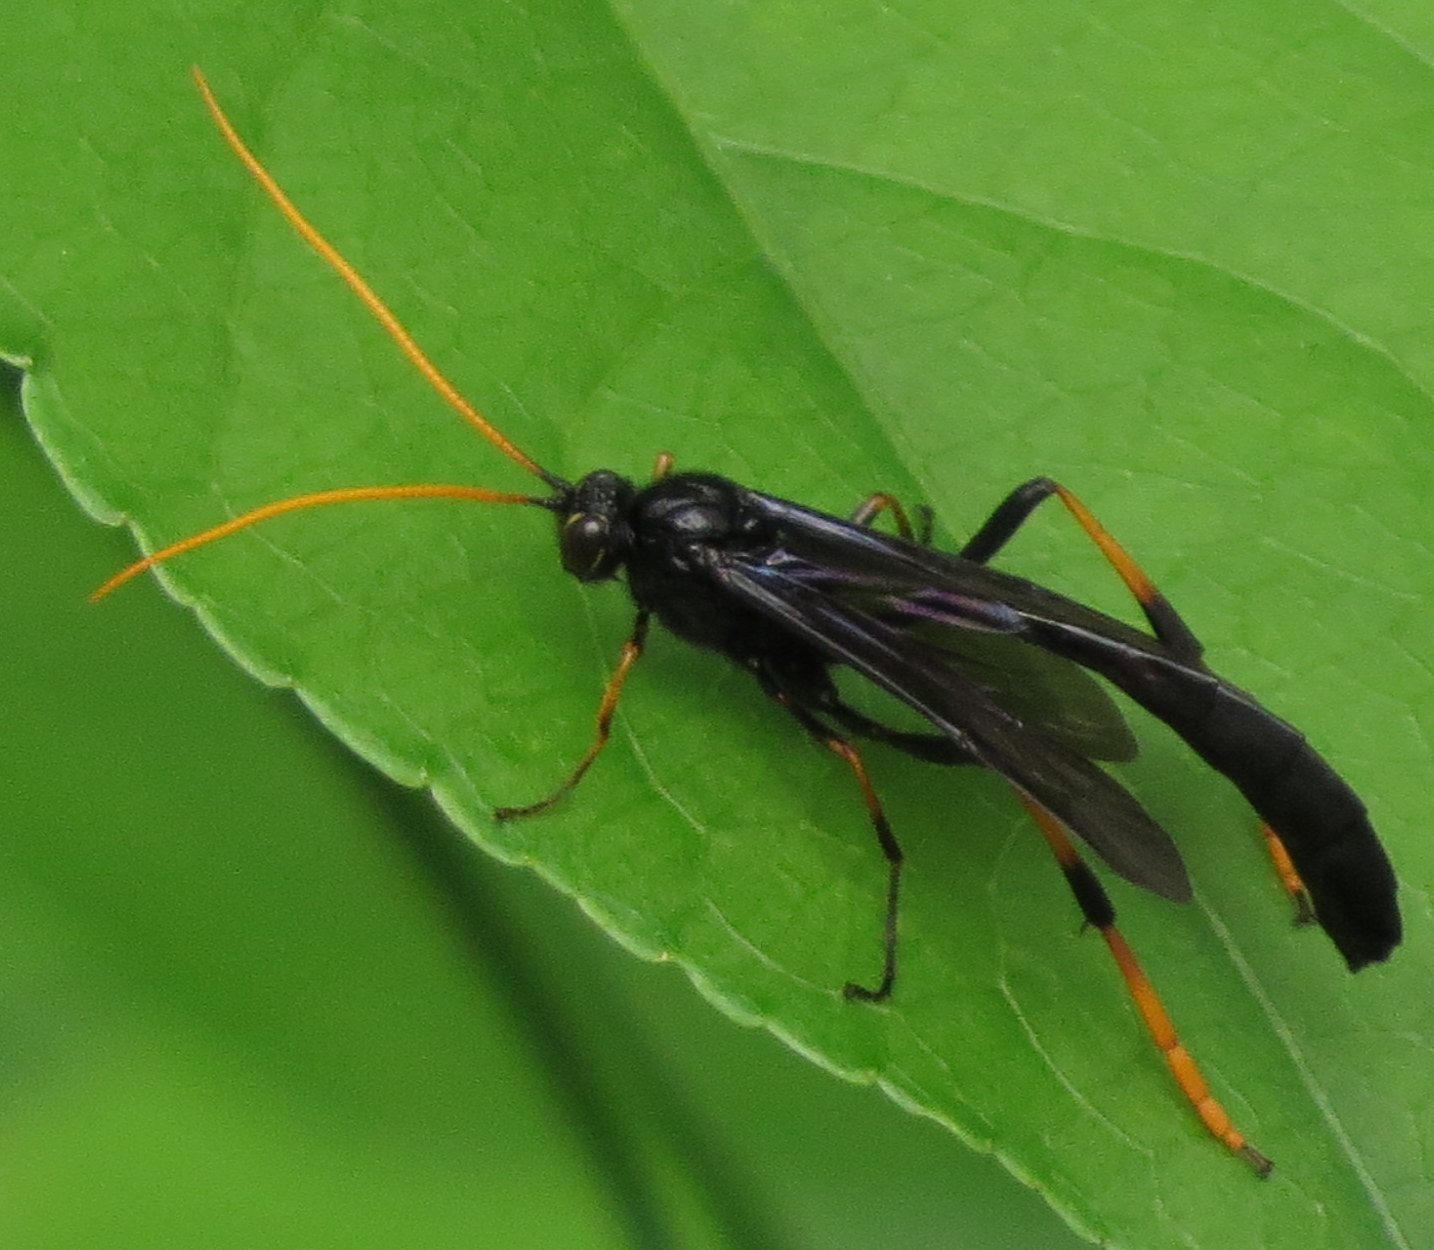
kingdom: Animalia
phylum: Arthropoda
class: Insecta
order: Hymenoptera
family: Ichneumonidae
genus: Therion
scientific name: Therion morio
